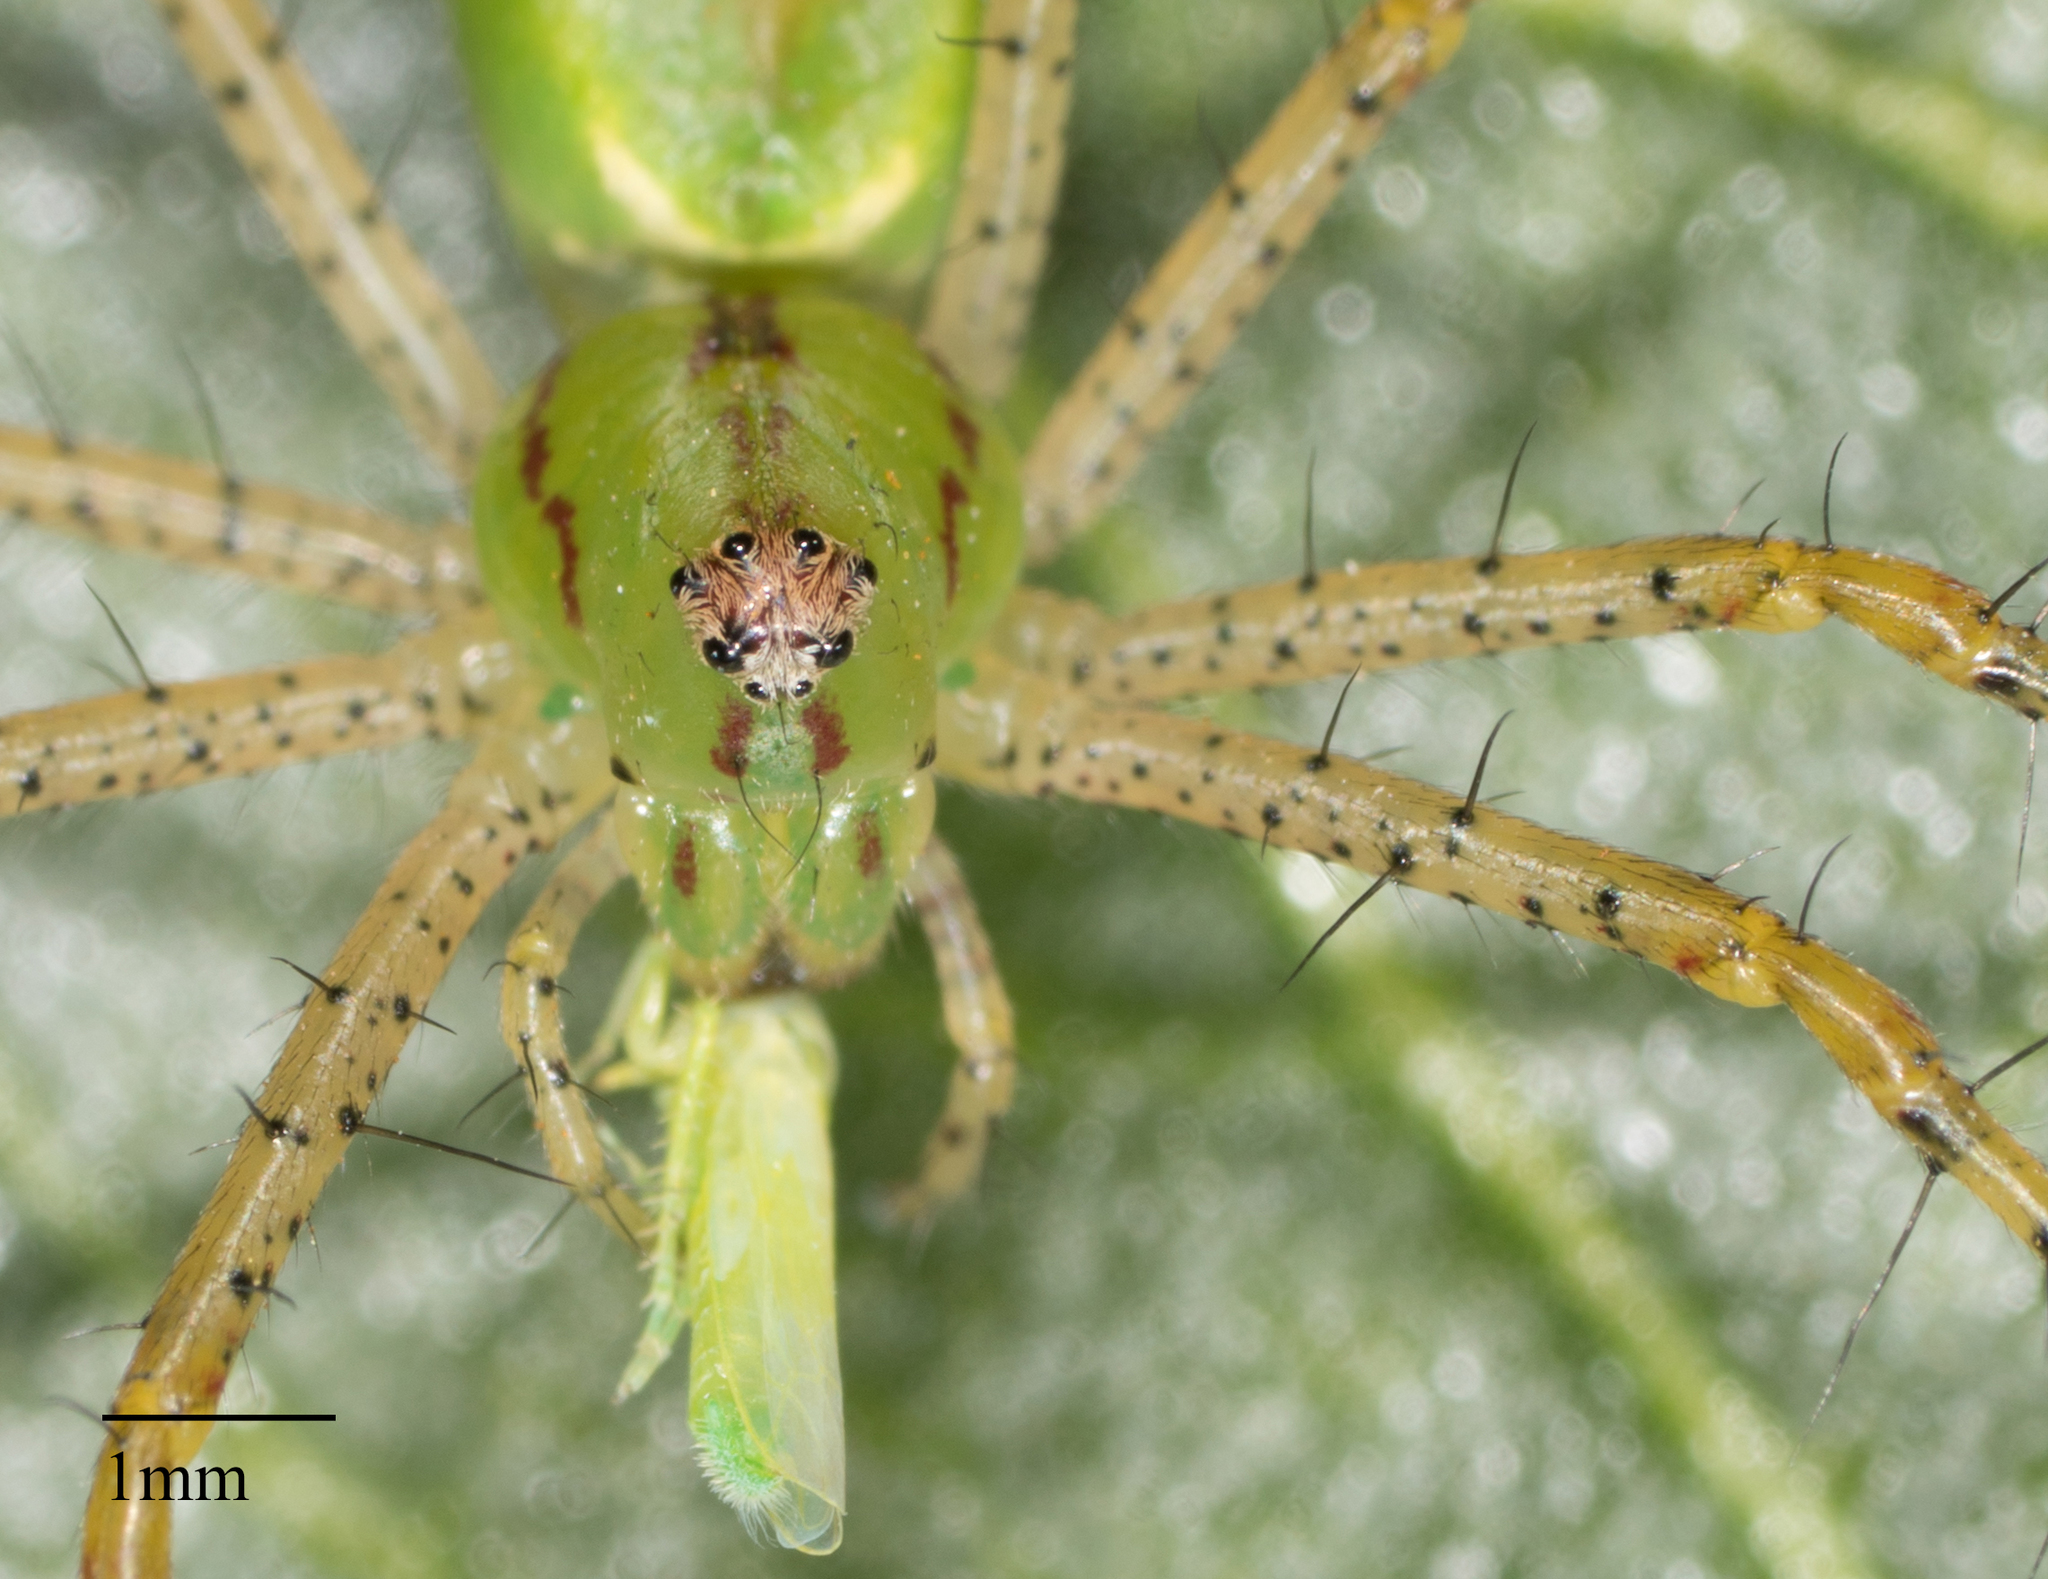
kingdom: Animalia
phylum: Arthropoda
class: Arachnida
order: Araneae
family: Oxyopidae
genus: Peucetia
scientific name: Peucetia viridans
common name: Lynx spiders
